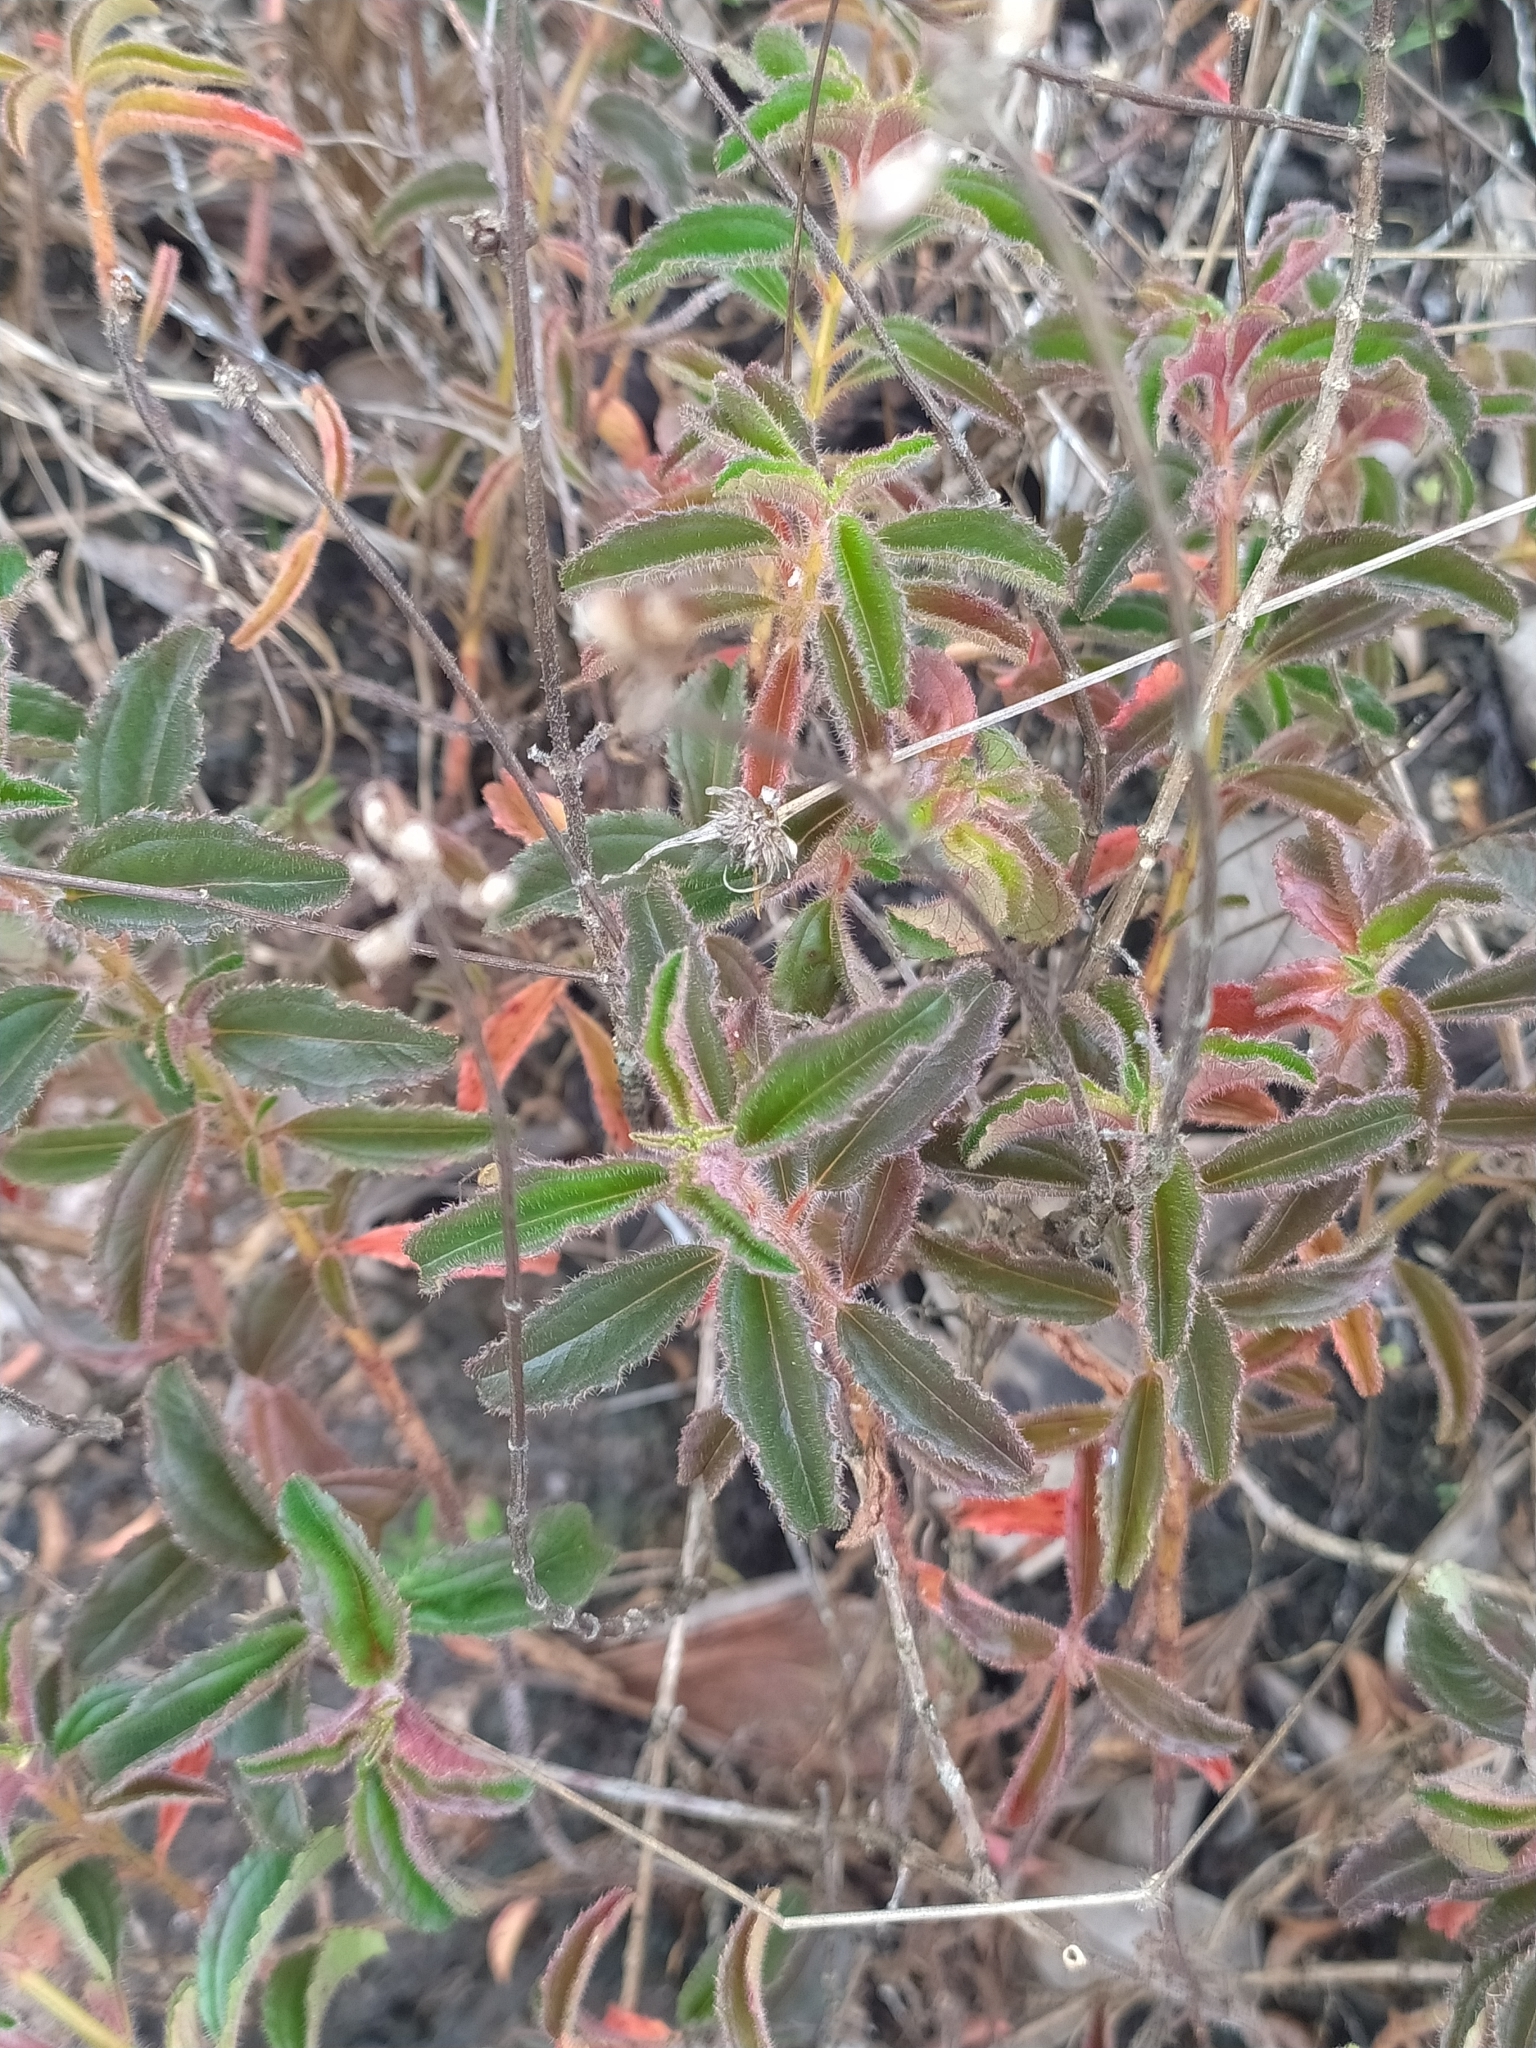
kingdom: Plantae
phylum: Tracheophyta
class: Magnoliopsida
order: Myrtales
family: Melastomataceae
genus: Ernestia
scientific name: Ernestia confertiflora
